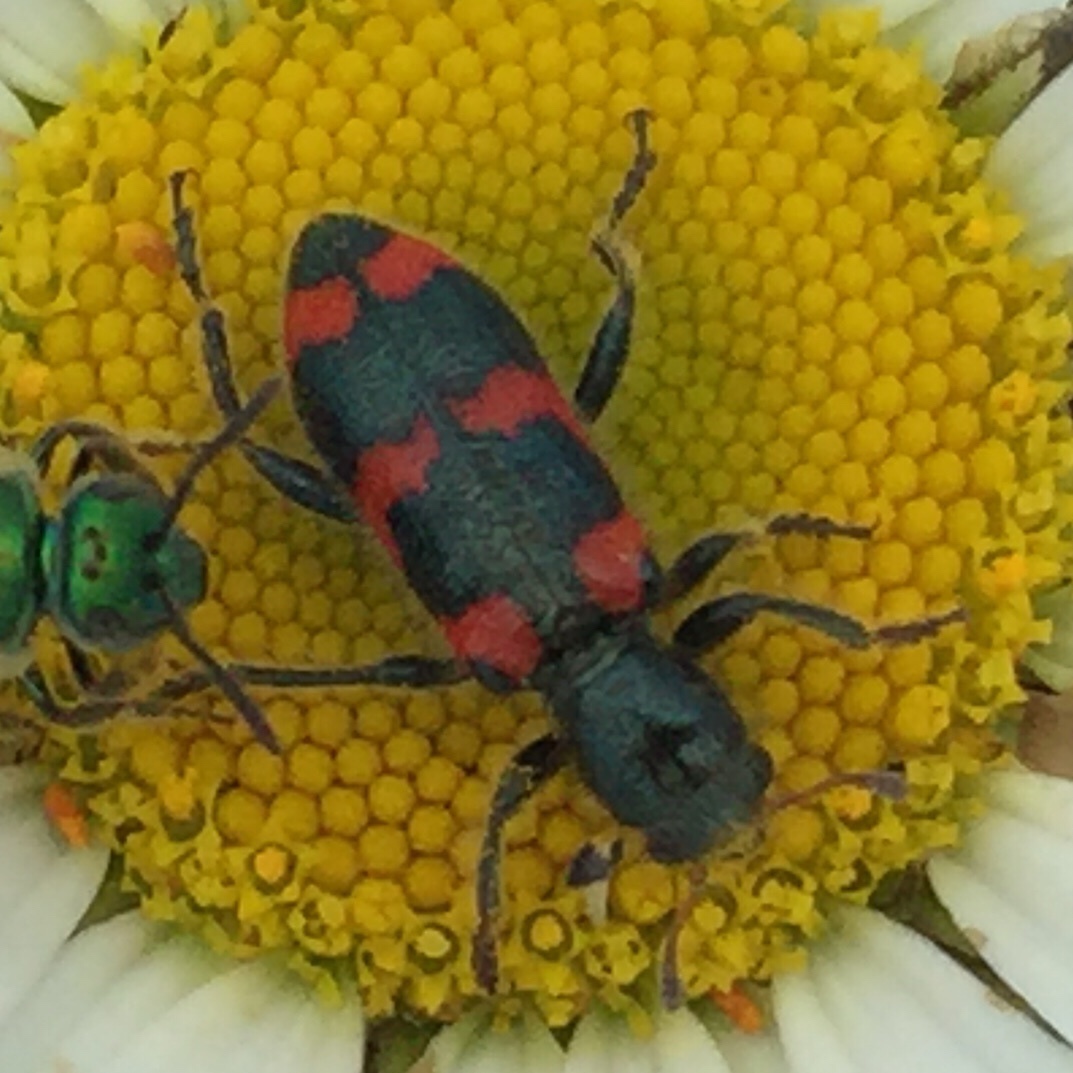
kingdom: Animalia
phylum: Arthropoda
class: Insecta
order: Coleoptera
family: Cleridae
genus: Trichodes
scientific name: Trichodes nutalli
